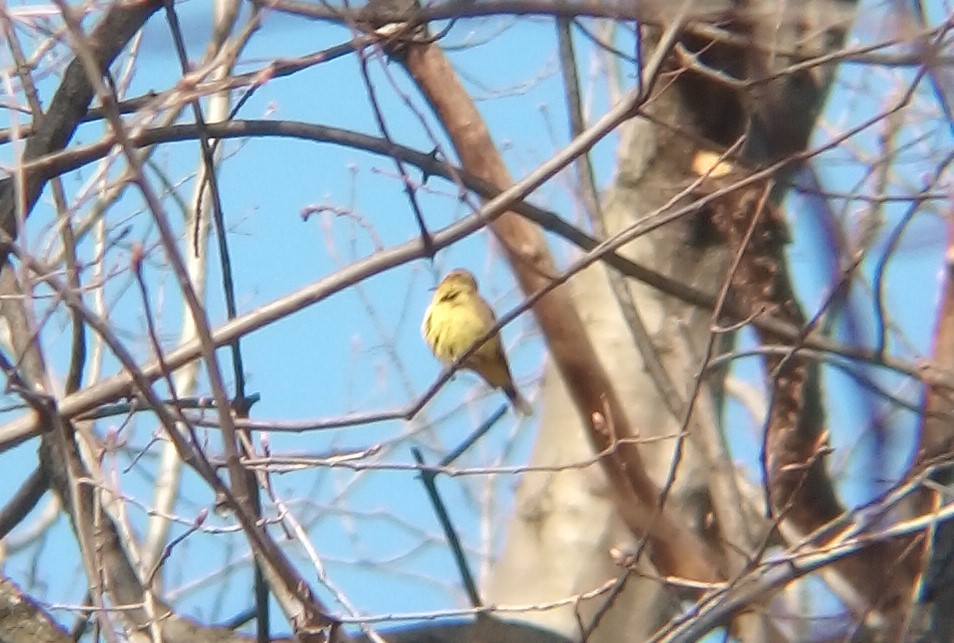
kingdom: Animalia
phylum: Chordata
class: Aves
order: Passeriformes
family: Parulidae
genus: Setophaga
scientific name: Setophaga palmarum
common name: Palm warbler
